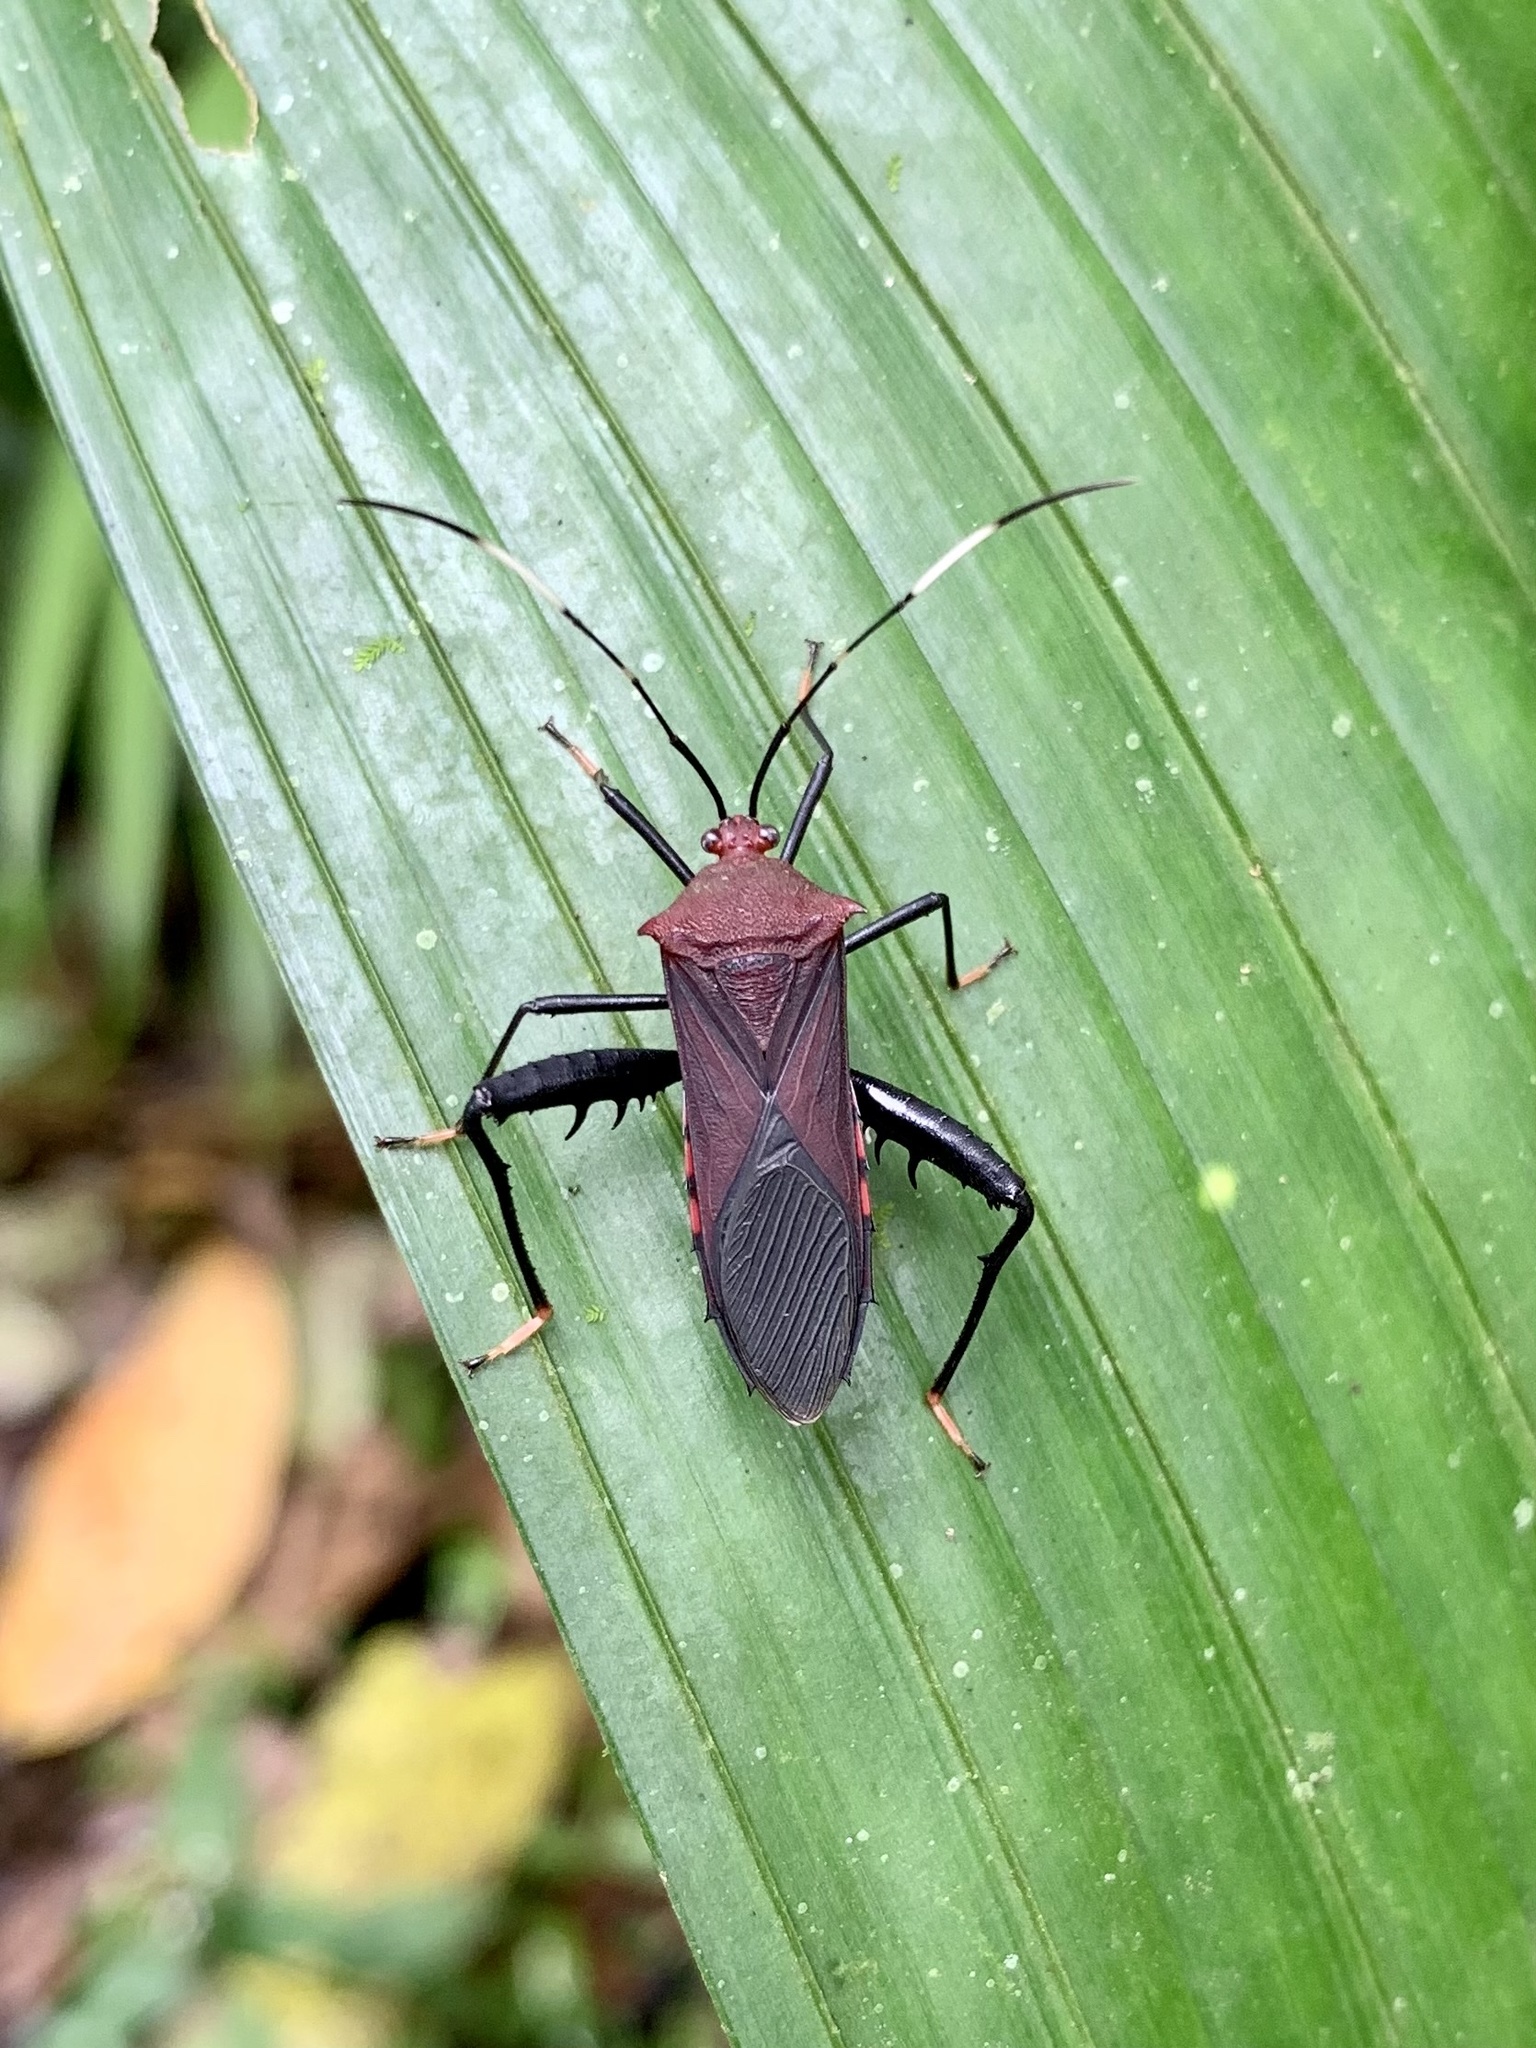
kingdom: Animalia
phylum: Arthropoda
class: Insecta
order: Hemiptera
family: Coreidae
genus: Nematopus
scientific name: Nematopus cribratus
